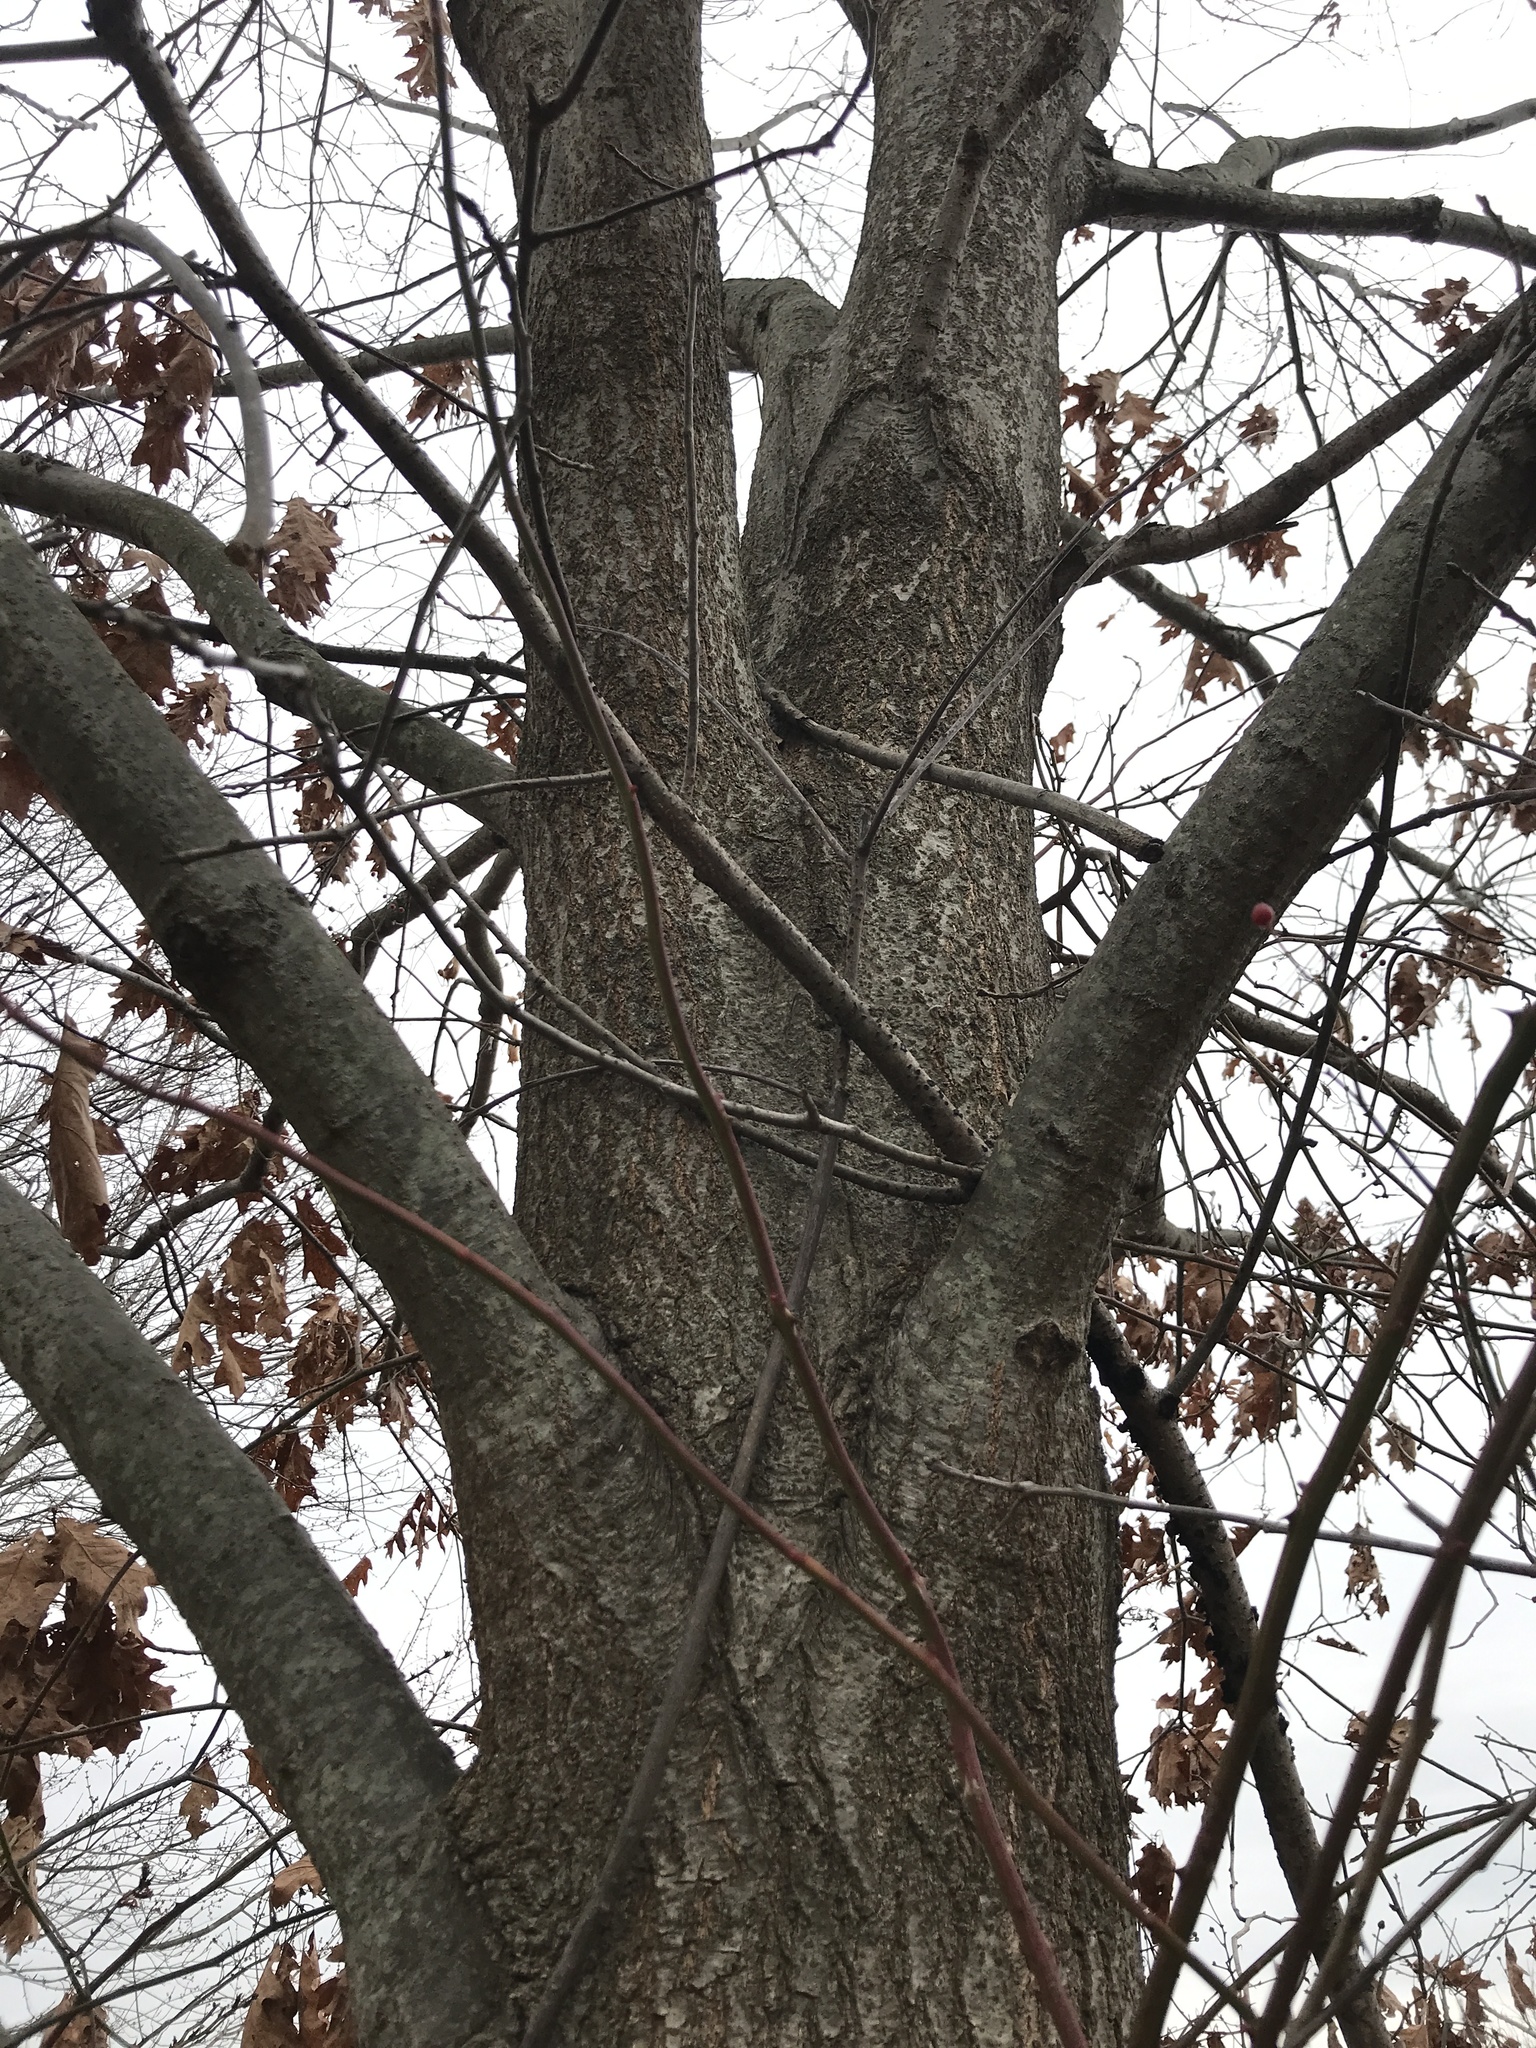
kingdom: Plantae
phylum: Tracheophyta
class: Magnoliopsida
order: Fagales
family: Fagaceae
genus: Quercus
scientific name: Quercus rubra
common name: Red oak
